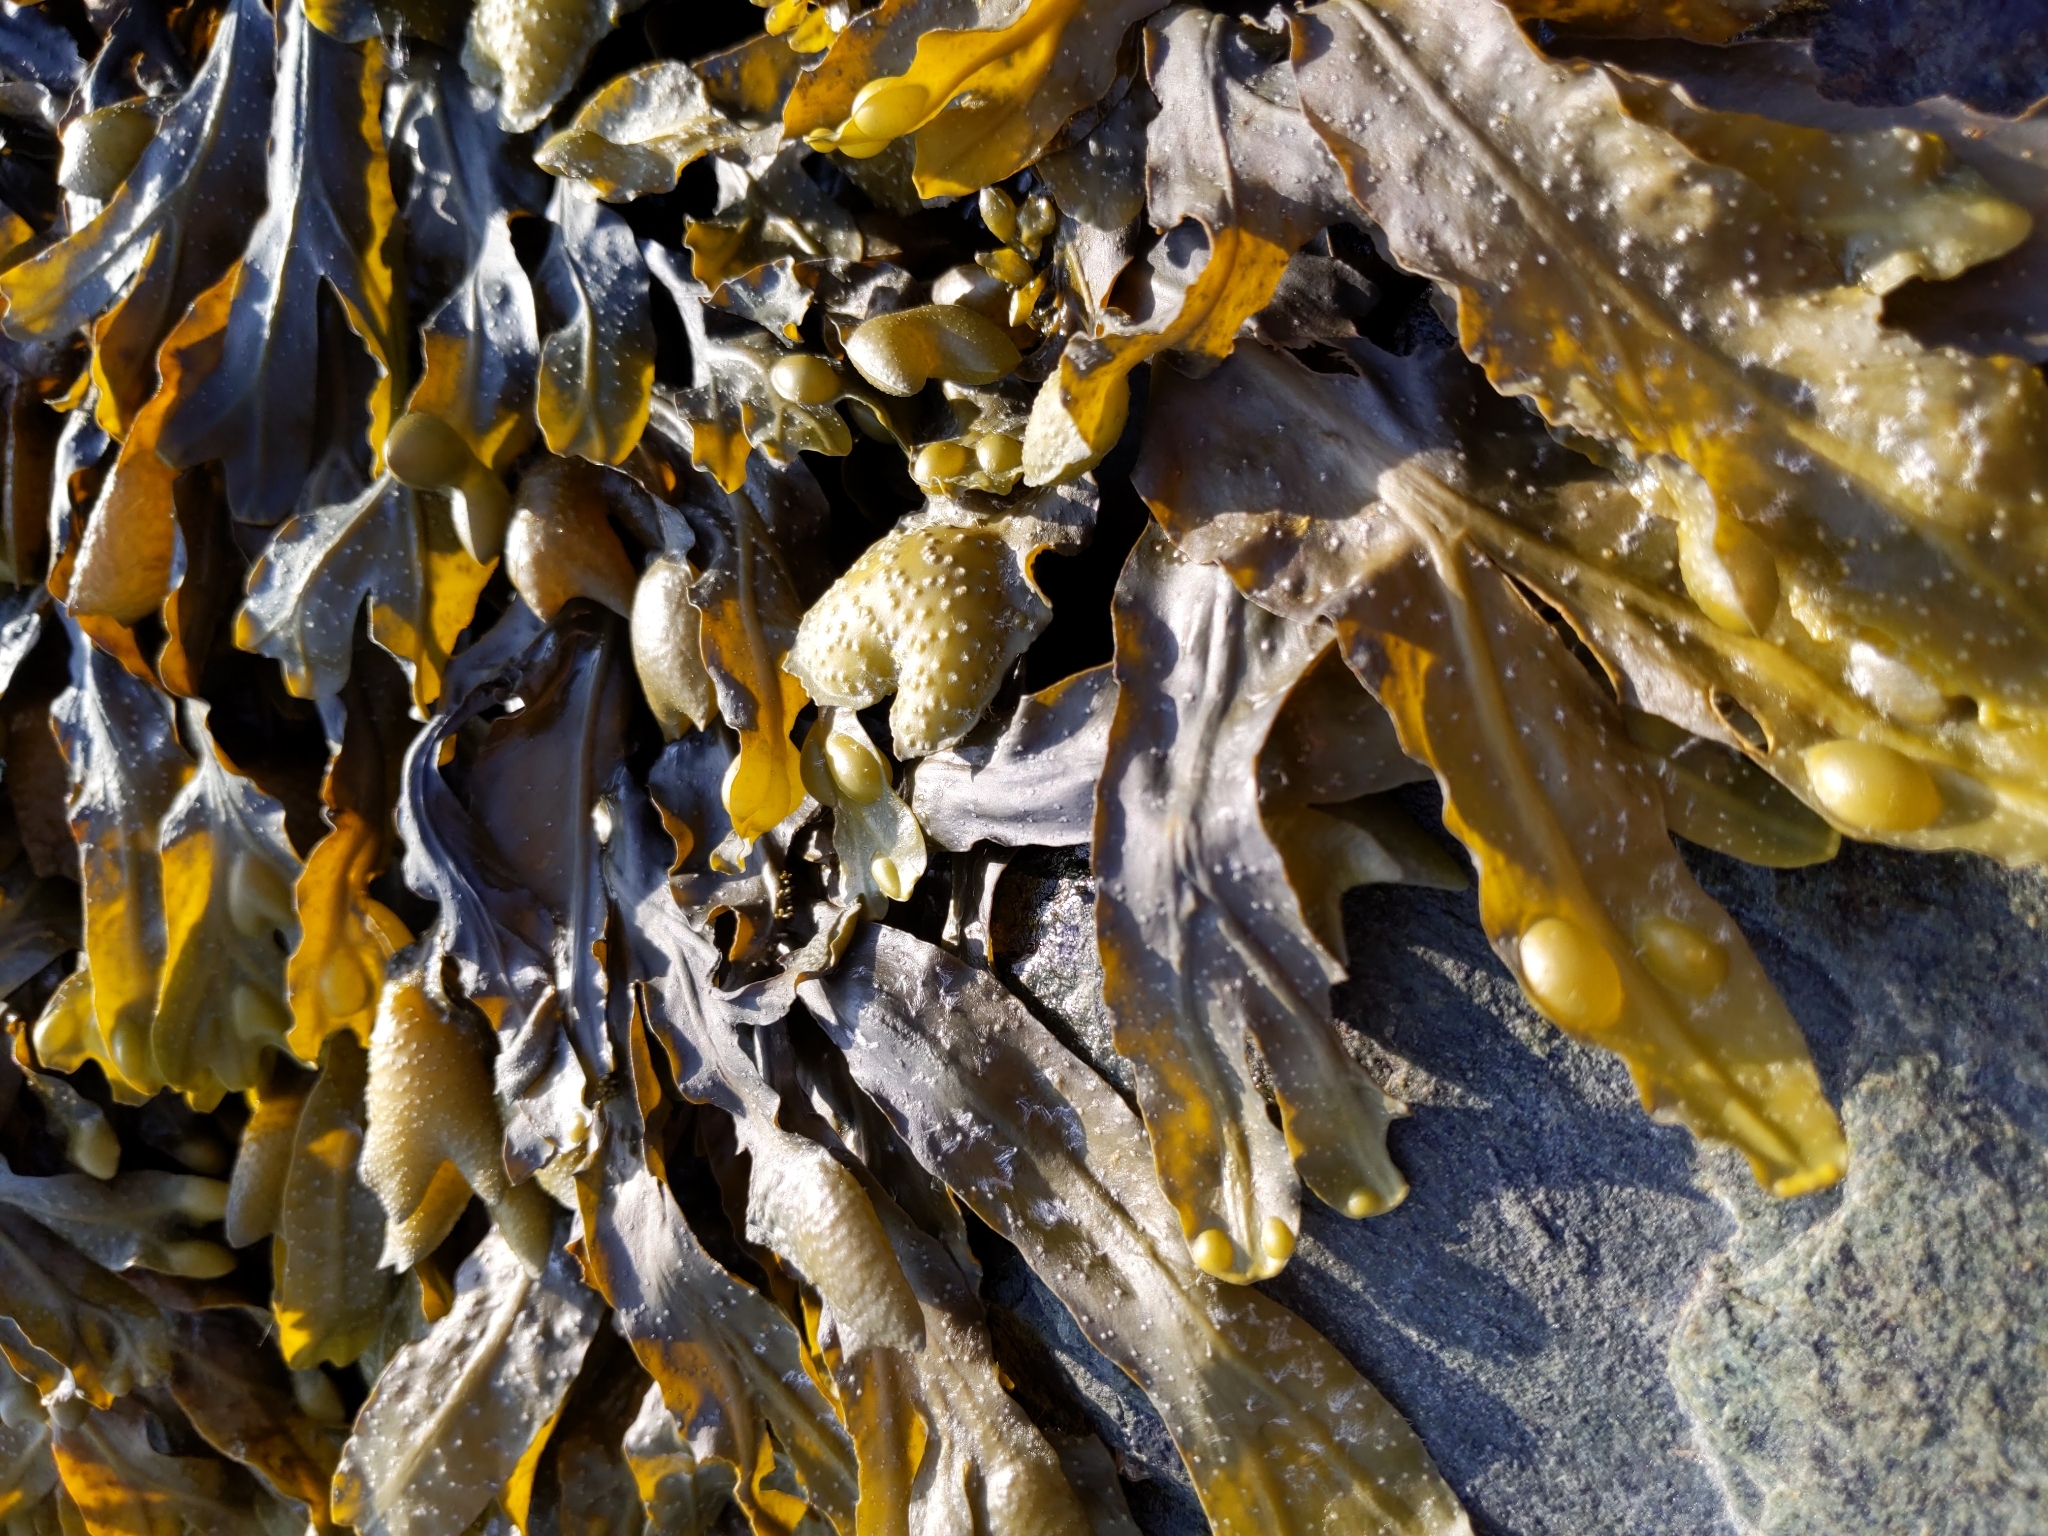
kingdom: Chromista
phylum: Ochrophyta
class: Phaeophyceae
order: Fucales
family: Fucaceae
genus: Fucus
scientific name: Fucus vesiculosus
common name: Bladder wrack
